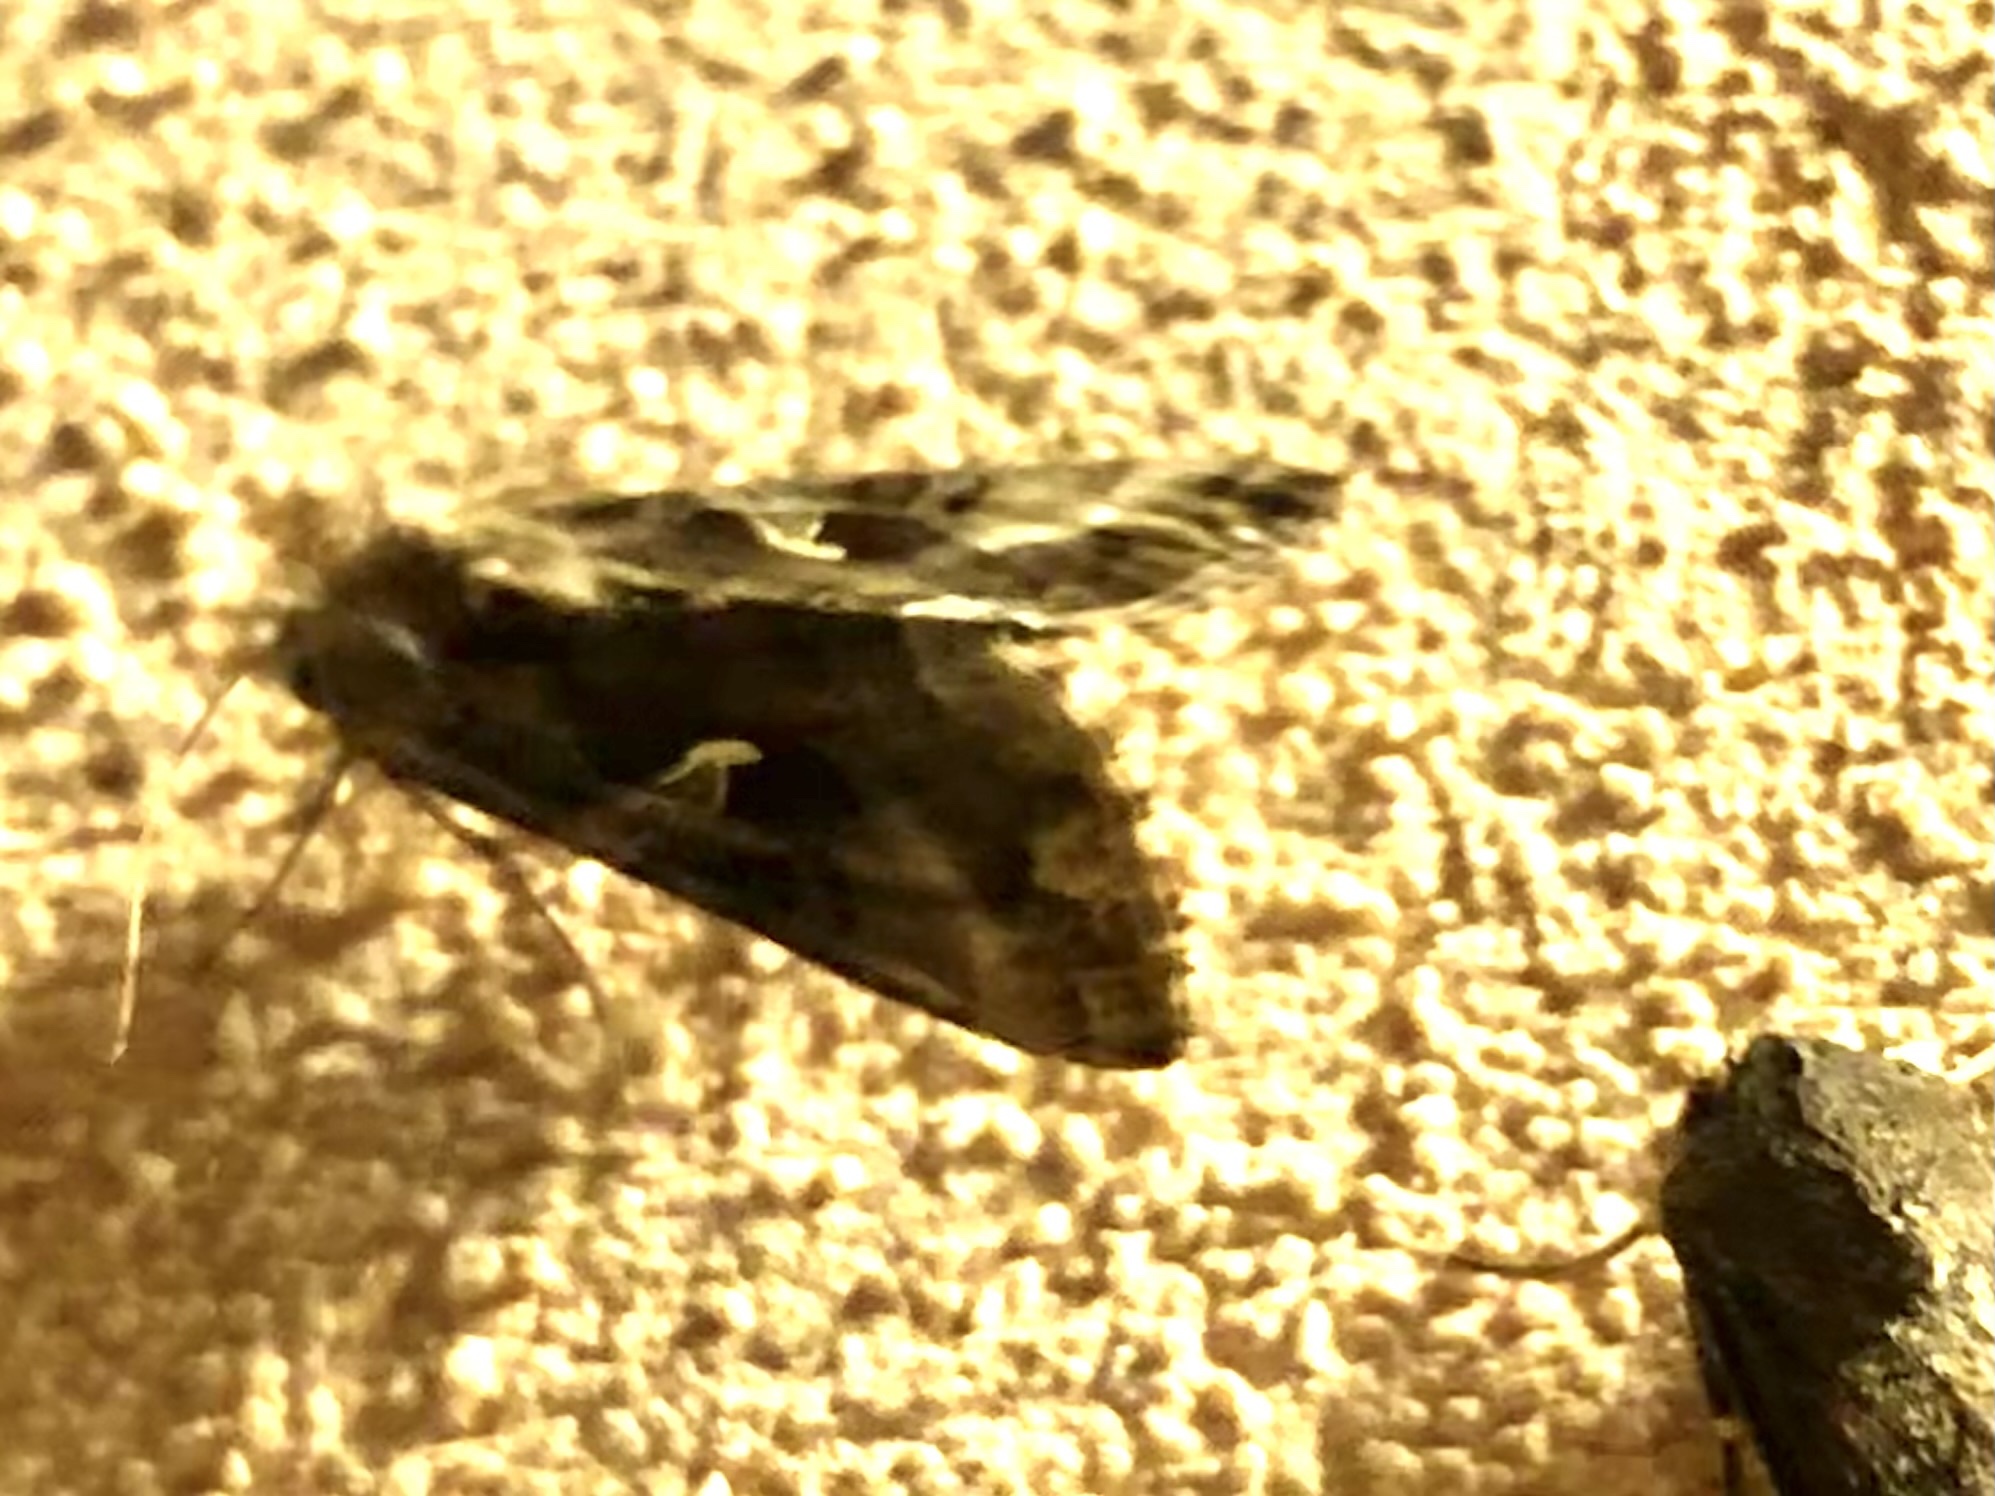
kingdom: Animalia
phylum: Arthropoda
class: Insecta
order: Lepidoptera
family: Noctuidae
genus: Autographa
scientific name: Autographa gamma
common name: Silver y
